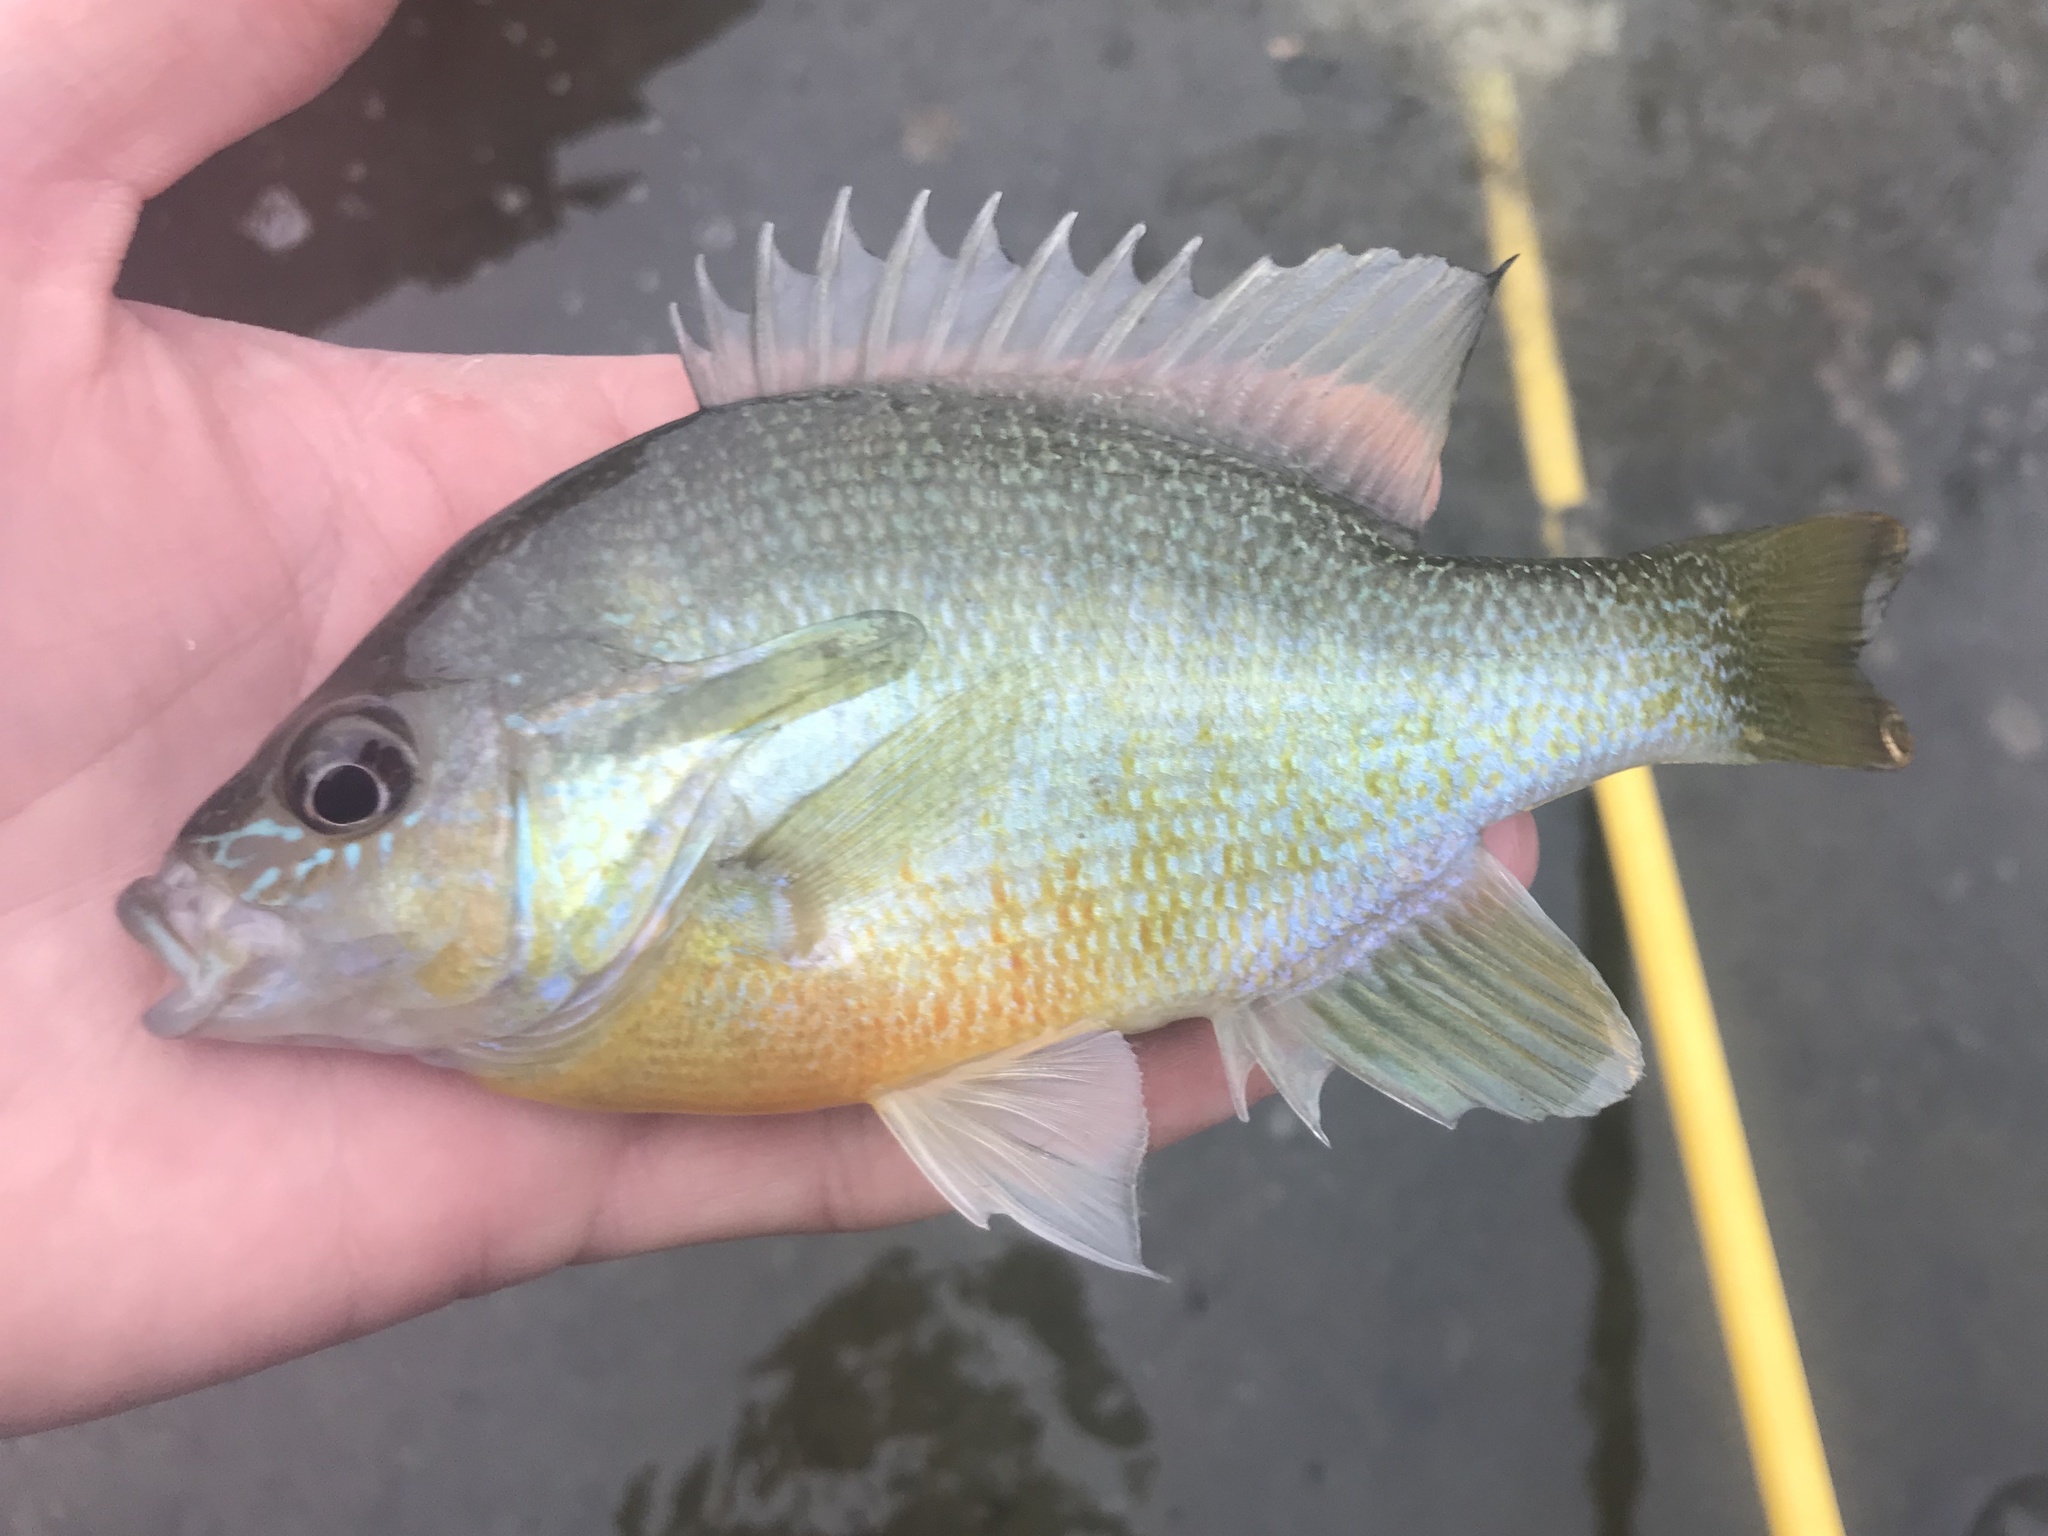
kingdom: Animalia
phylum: Chordata
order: Perciformes
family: Centrarchidae
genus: Lepomis
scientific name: Lepomis auritus
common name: Redbreast sunfish
